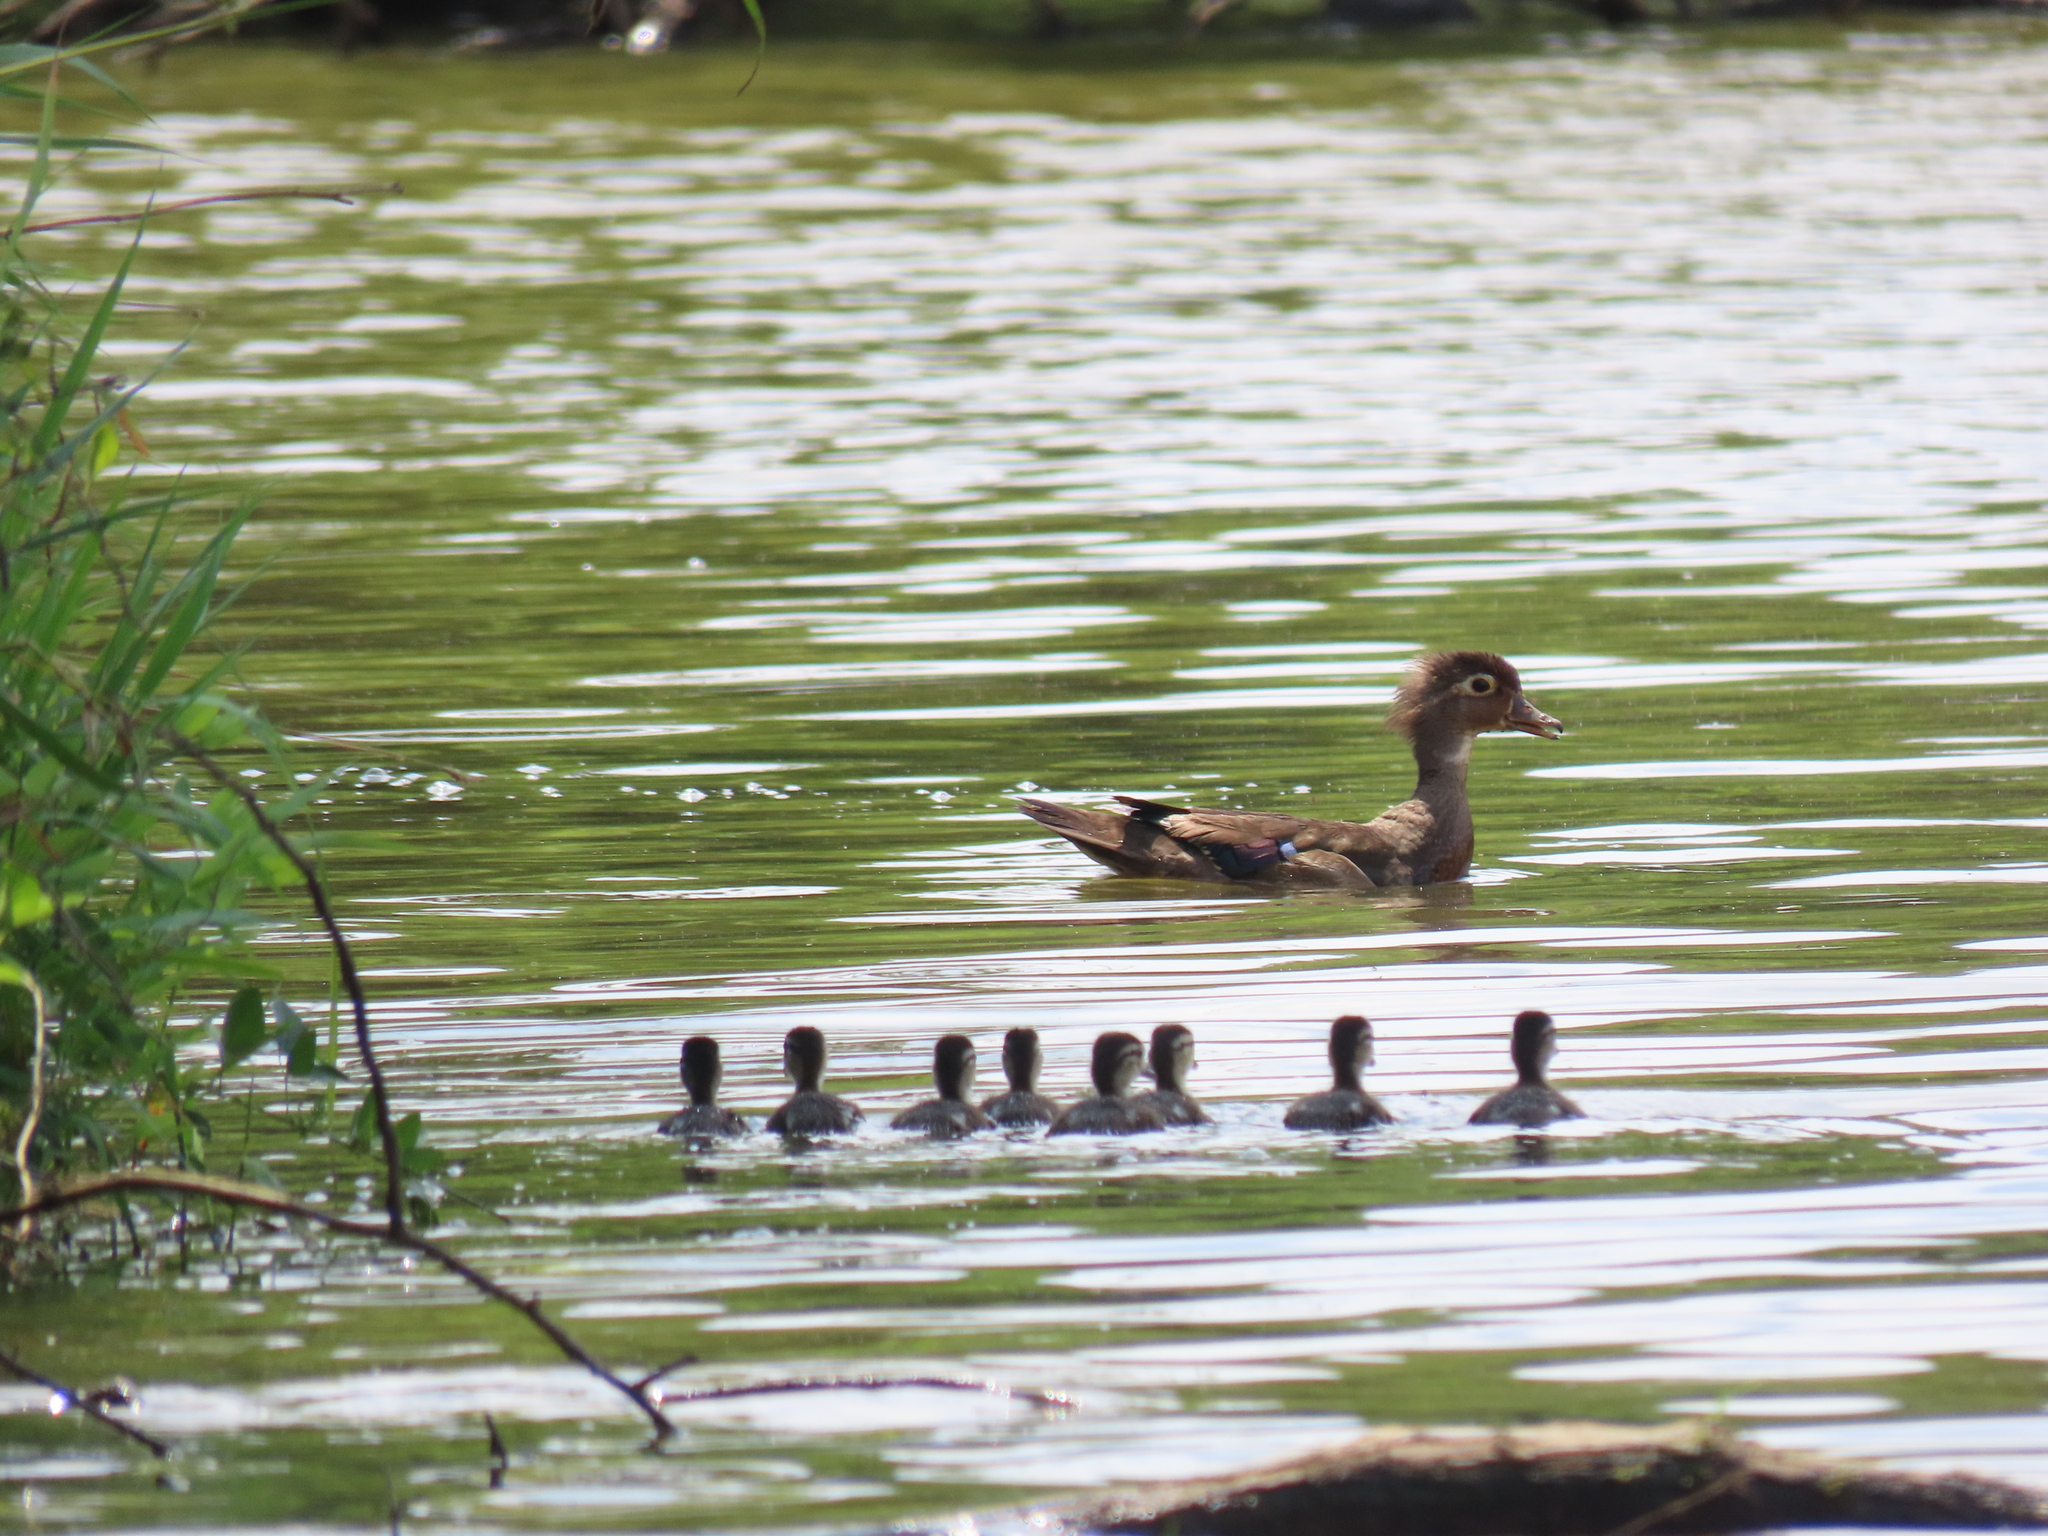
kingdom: Animalia
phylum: Chordata
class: Aves
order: Anseriformes
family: Anatidae
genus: Aix
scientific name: Aix sponsa
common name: Wood duck
